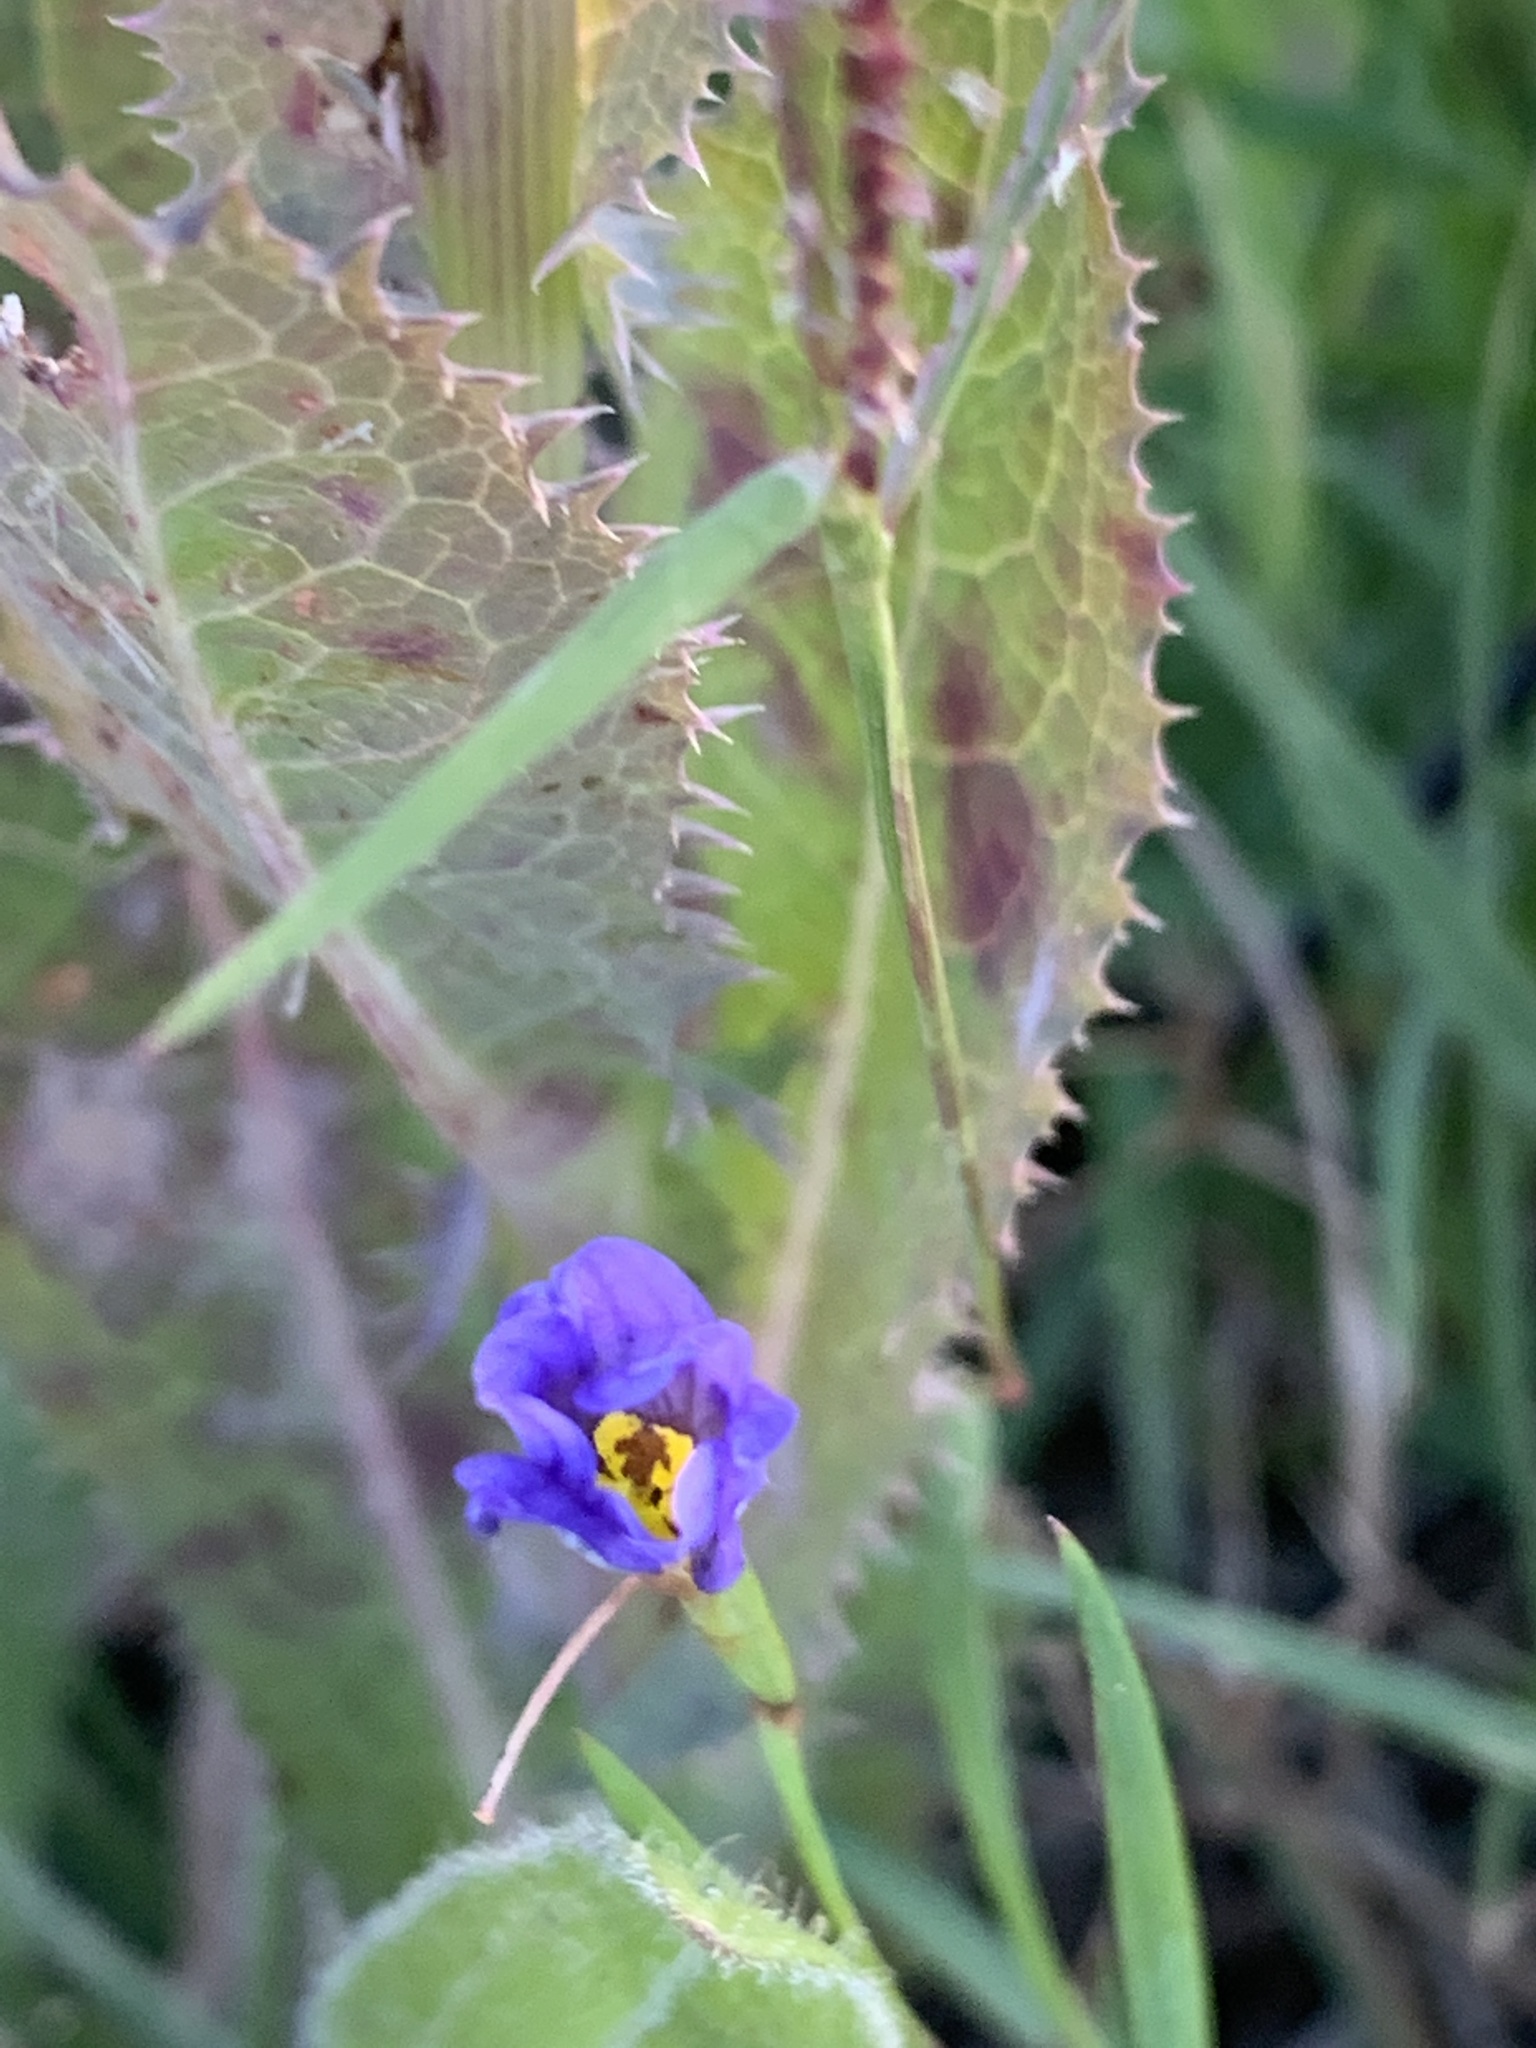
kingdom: Plantae
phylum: Tracheophyta
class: Magnoliopsida
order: Solanales
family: Solanaceae
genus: Solanum
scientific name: Solanum elaeagnifolium
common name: Silverleaf nightshade
